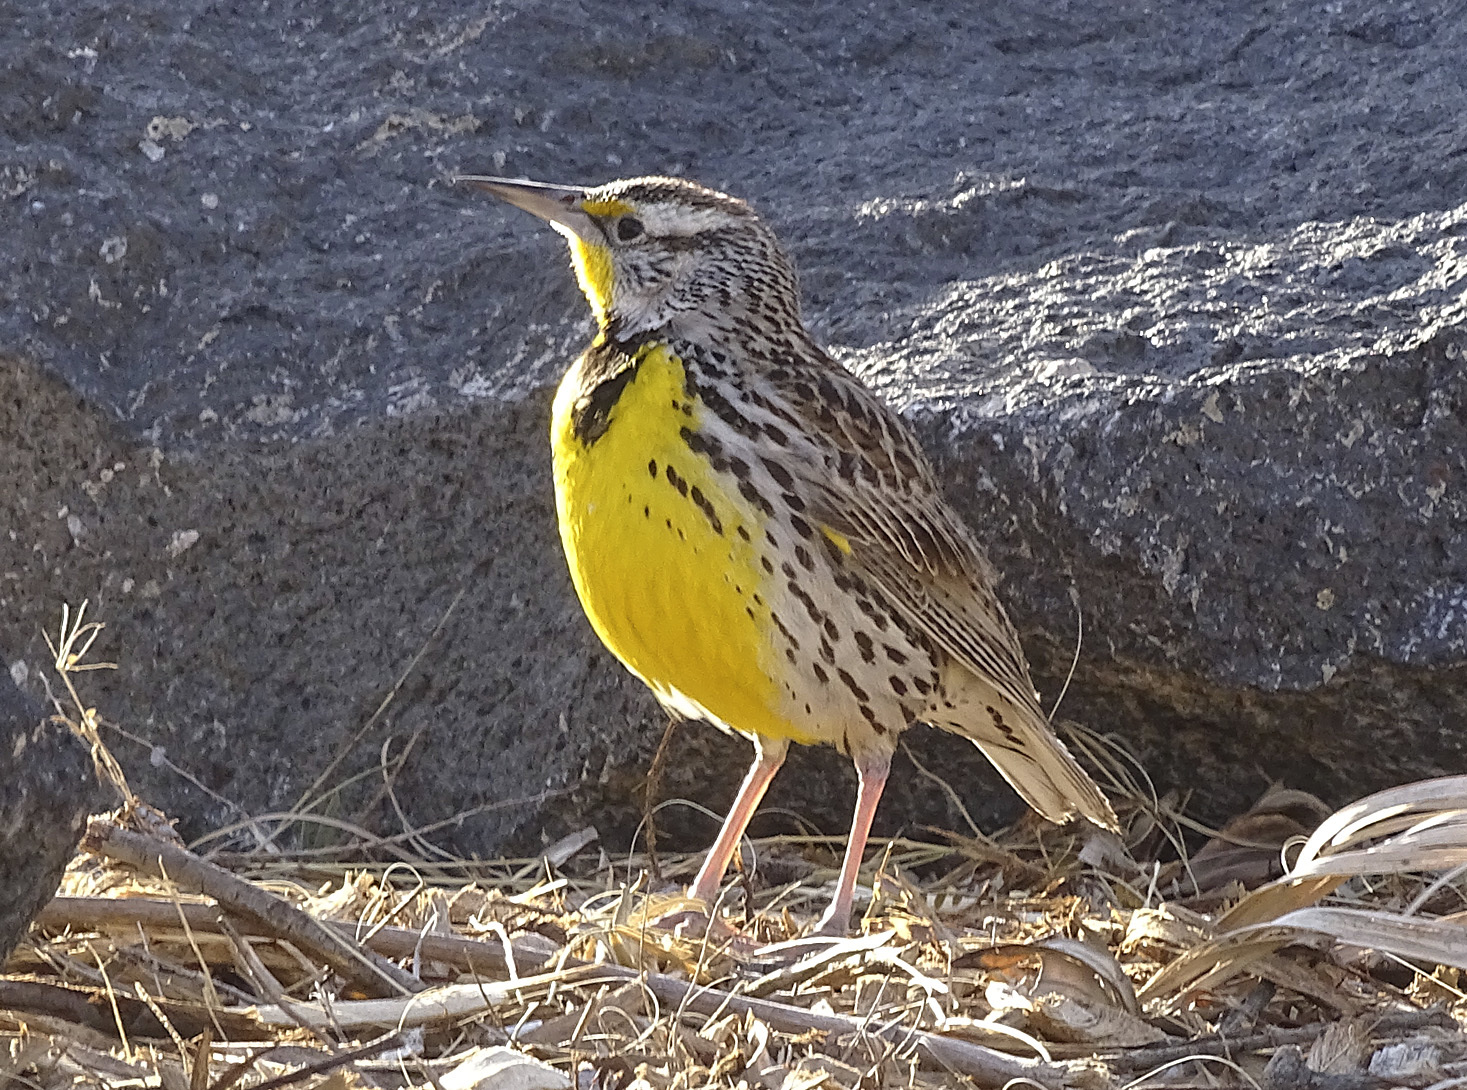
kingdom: Animalia
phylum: Chordata
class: Aves
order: Passeriformes
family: Icteridae
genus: Sturnella
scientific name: Sturnella neglecta
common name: Western meadowlark
